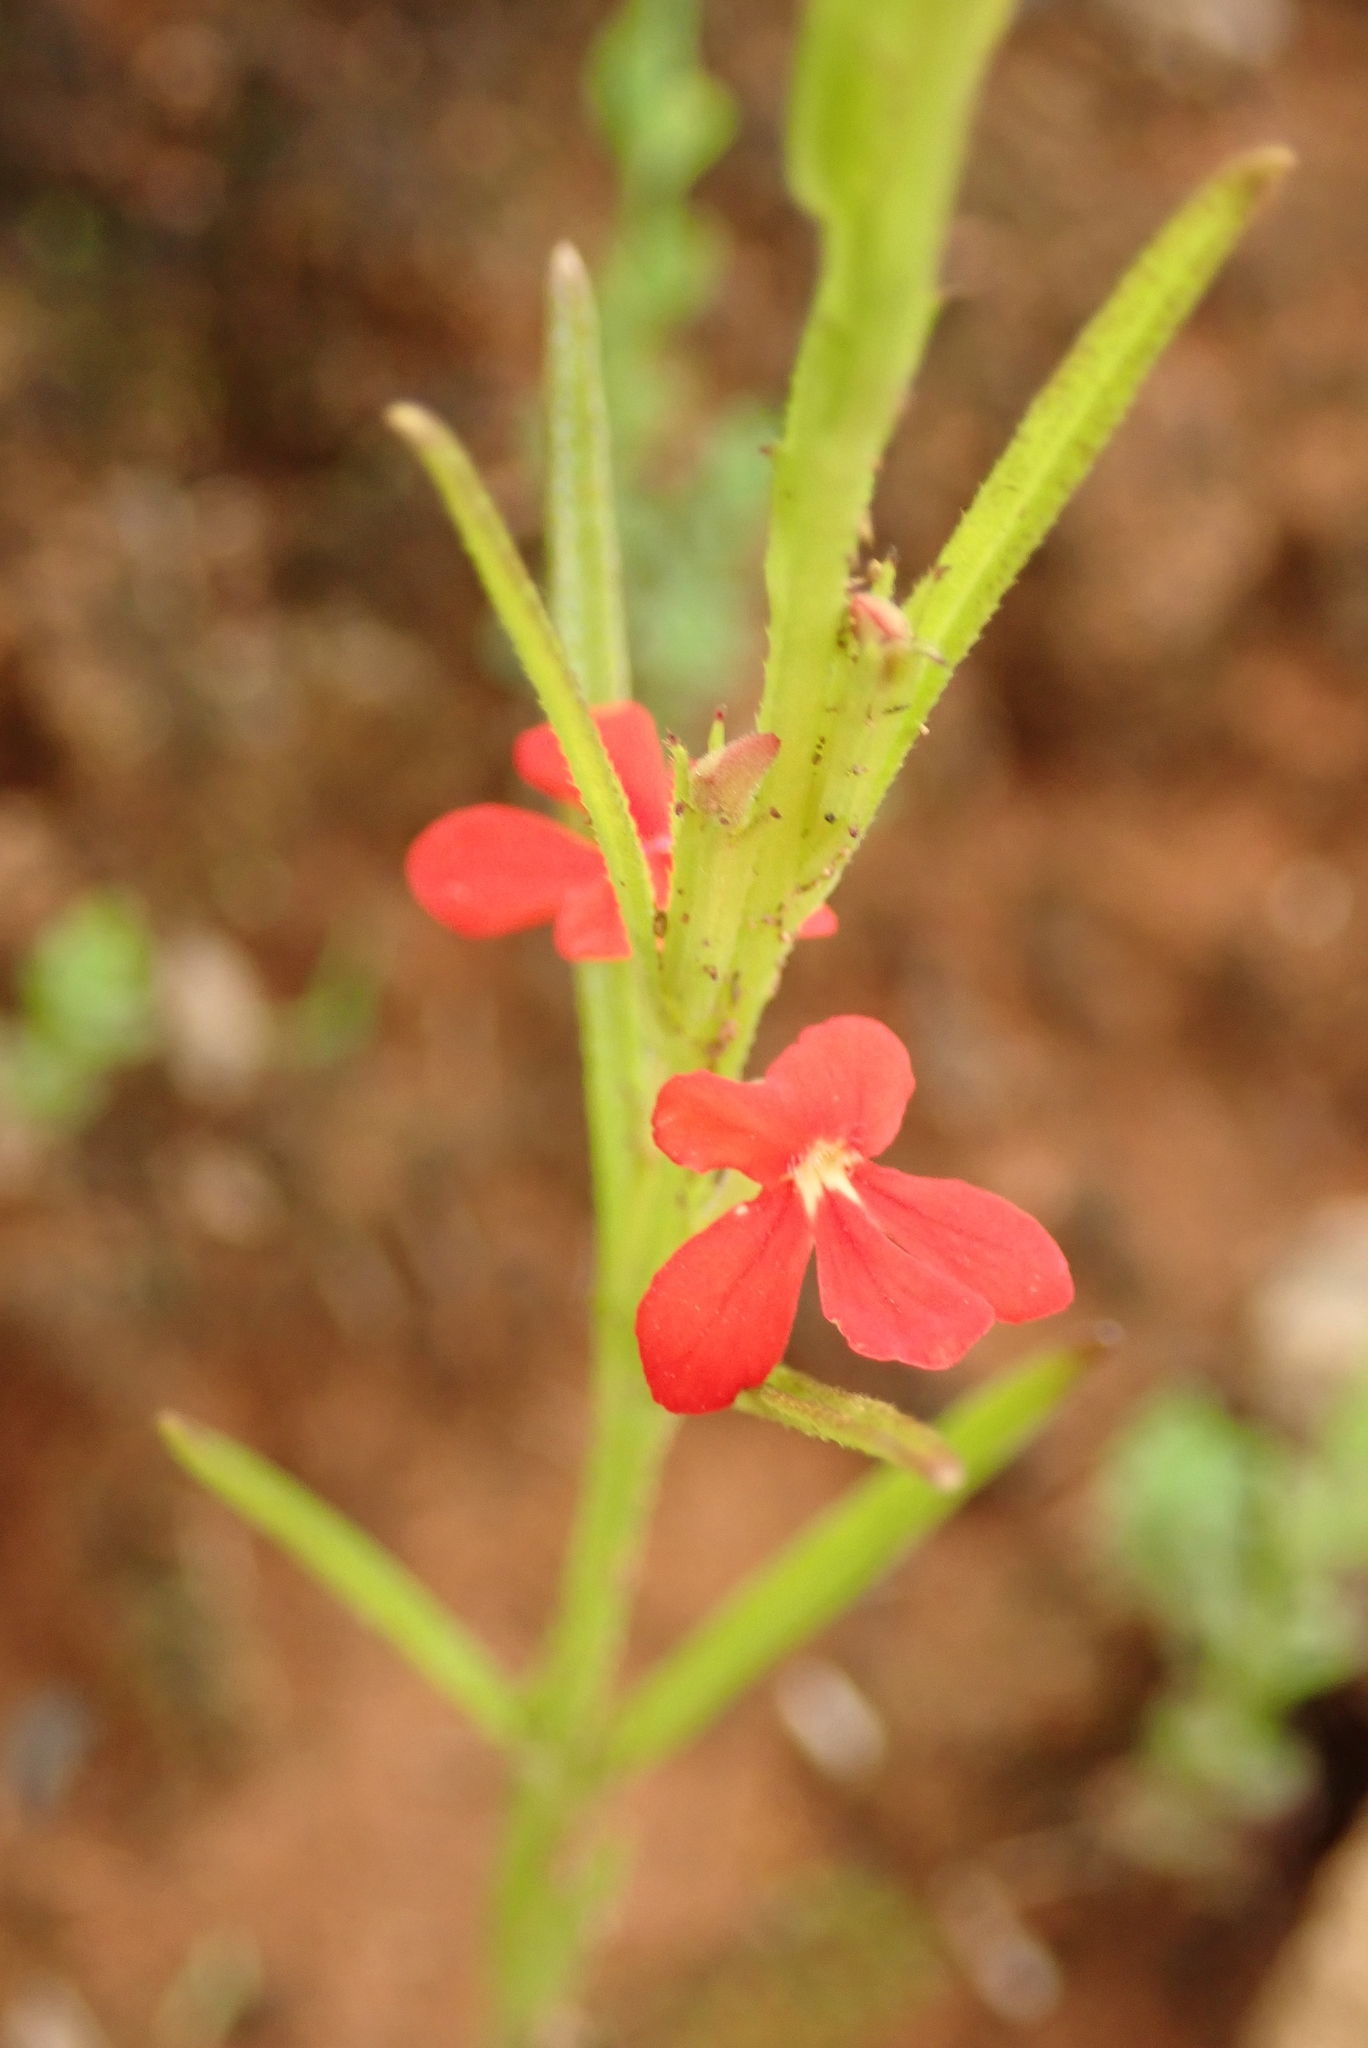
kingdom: Plantae
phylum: Tracheophyta
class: Magnoliopsida
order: Lamiales
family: Orobanchaceae
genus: Striga
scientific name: Striga asiatica
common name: Asiatic witchweed
